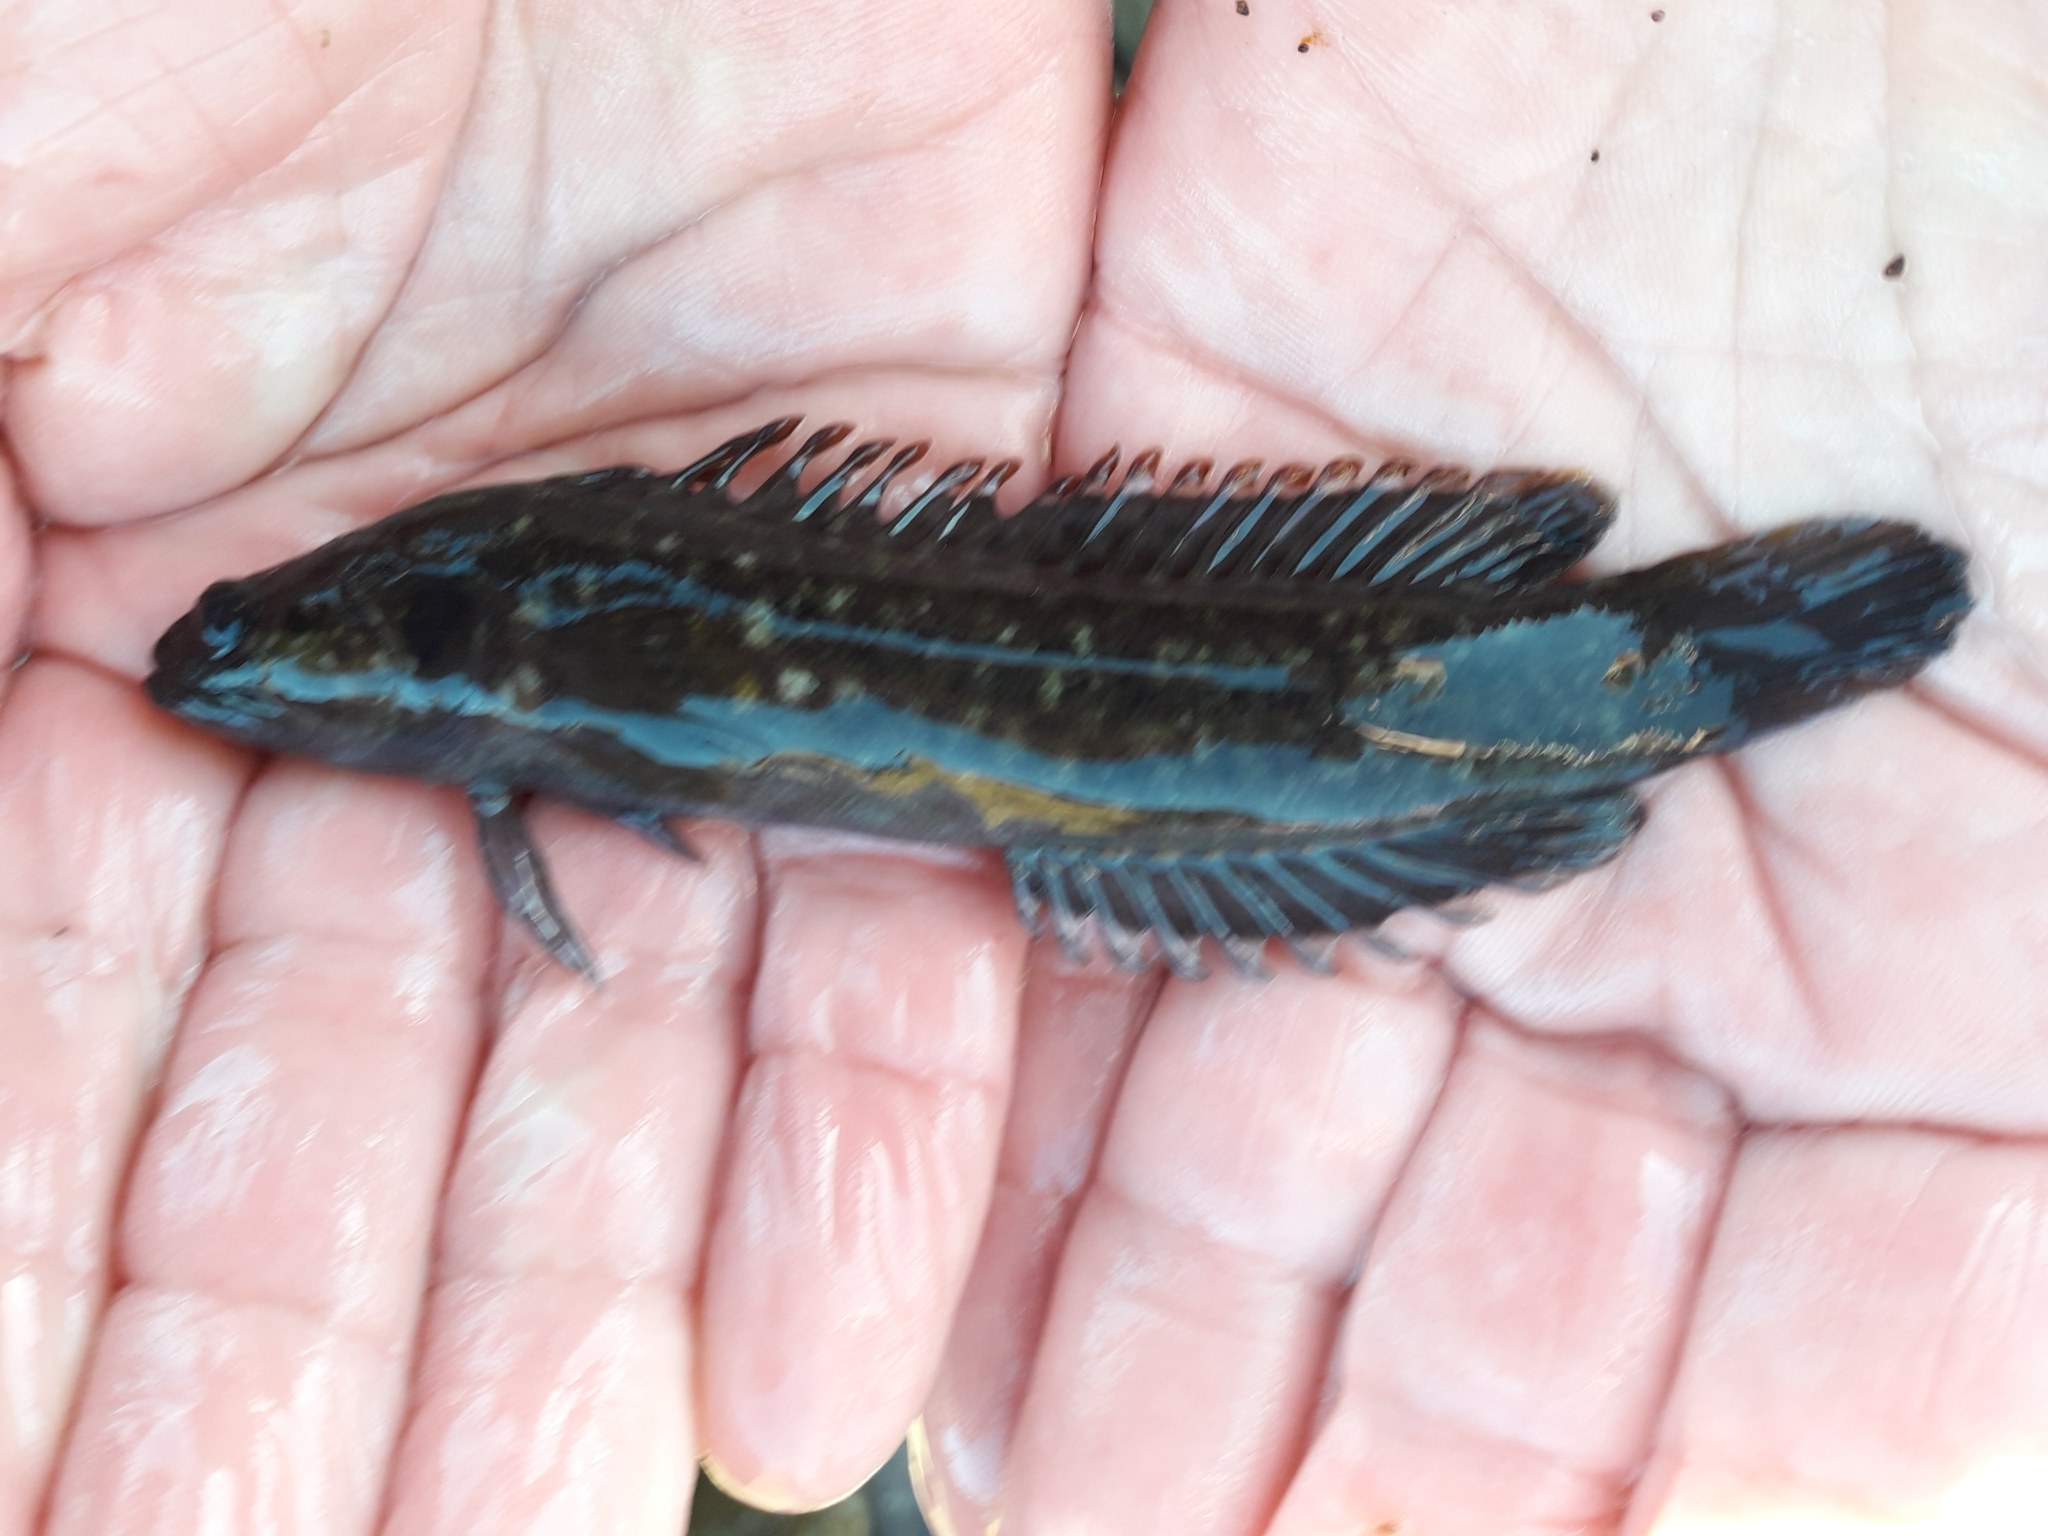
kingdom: Animalia
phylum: Chordata
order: Perciformes
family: Plesiopidae
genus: Acanthoclinus
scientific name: Acanthoclinus fuscus
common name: Olive rockfish
